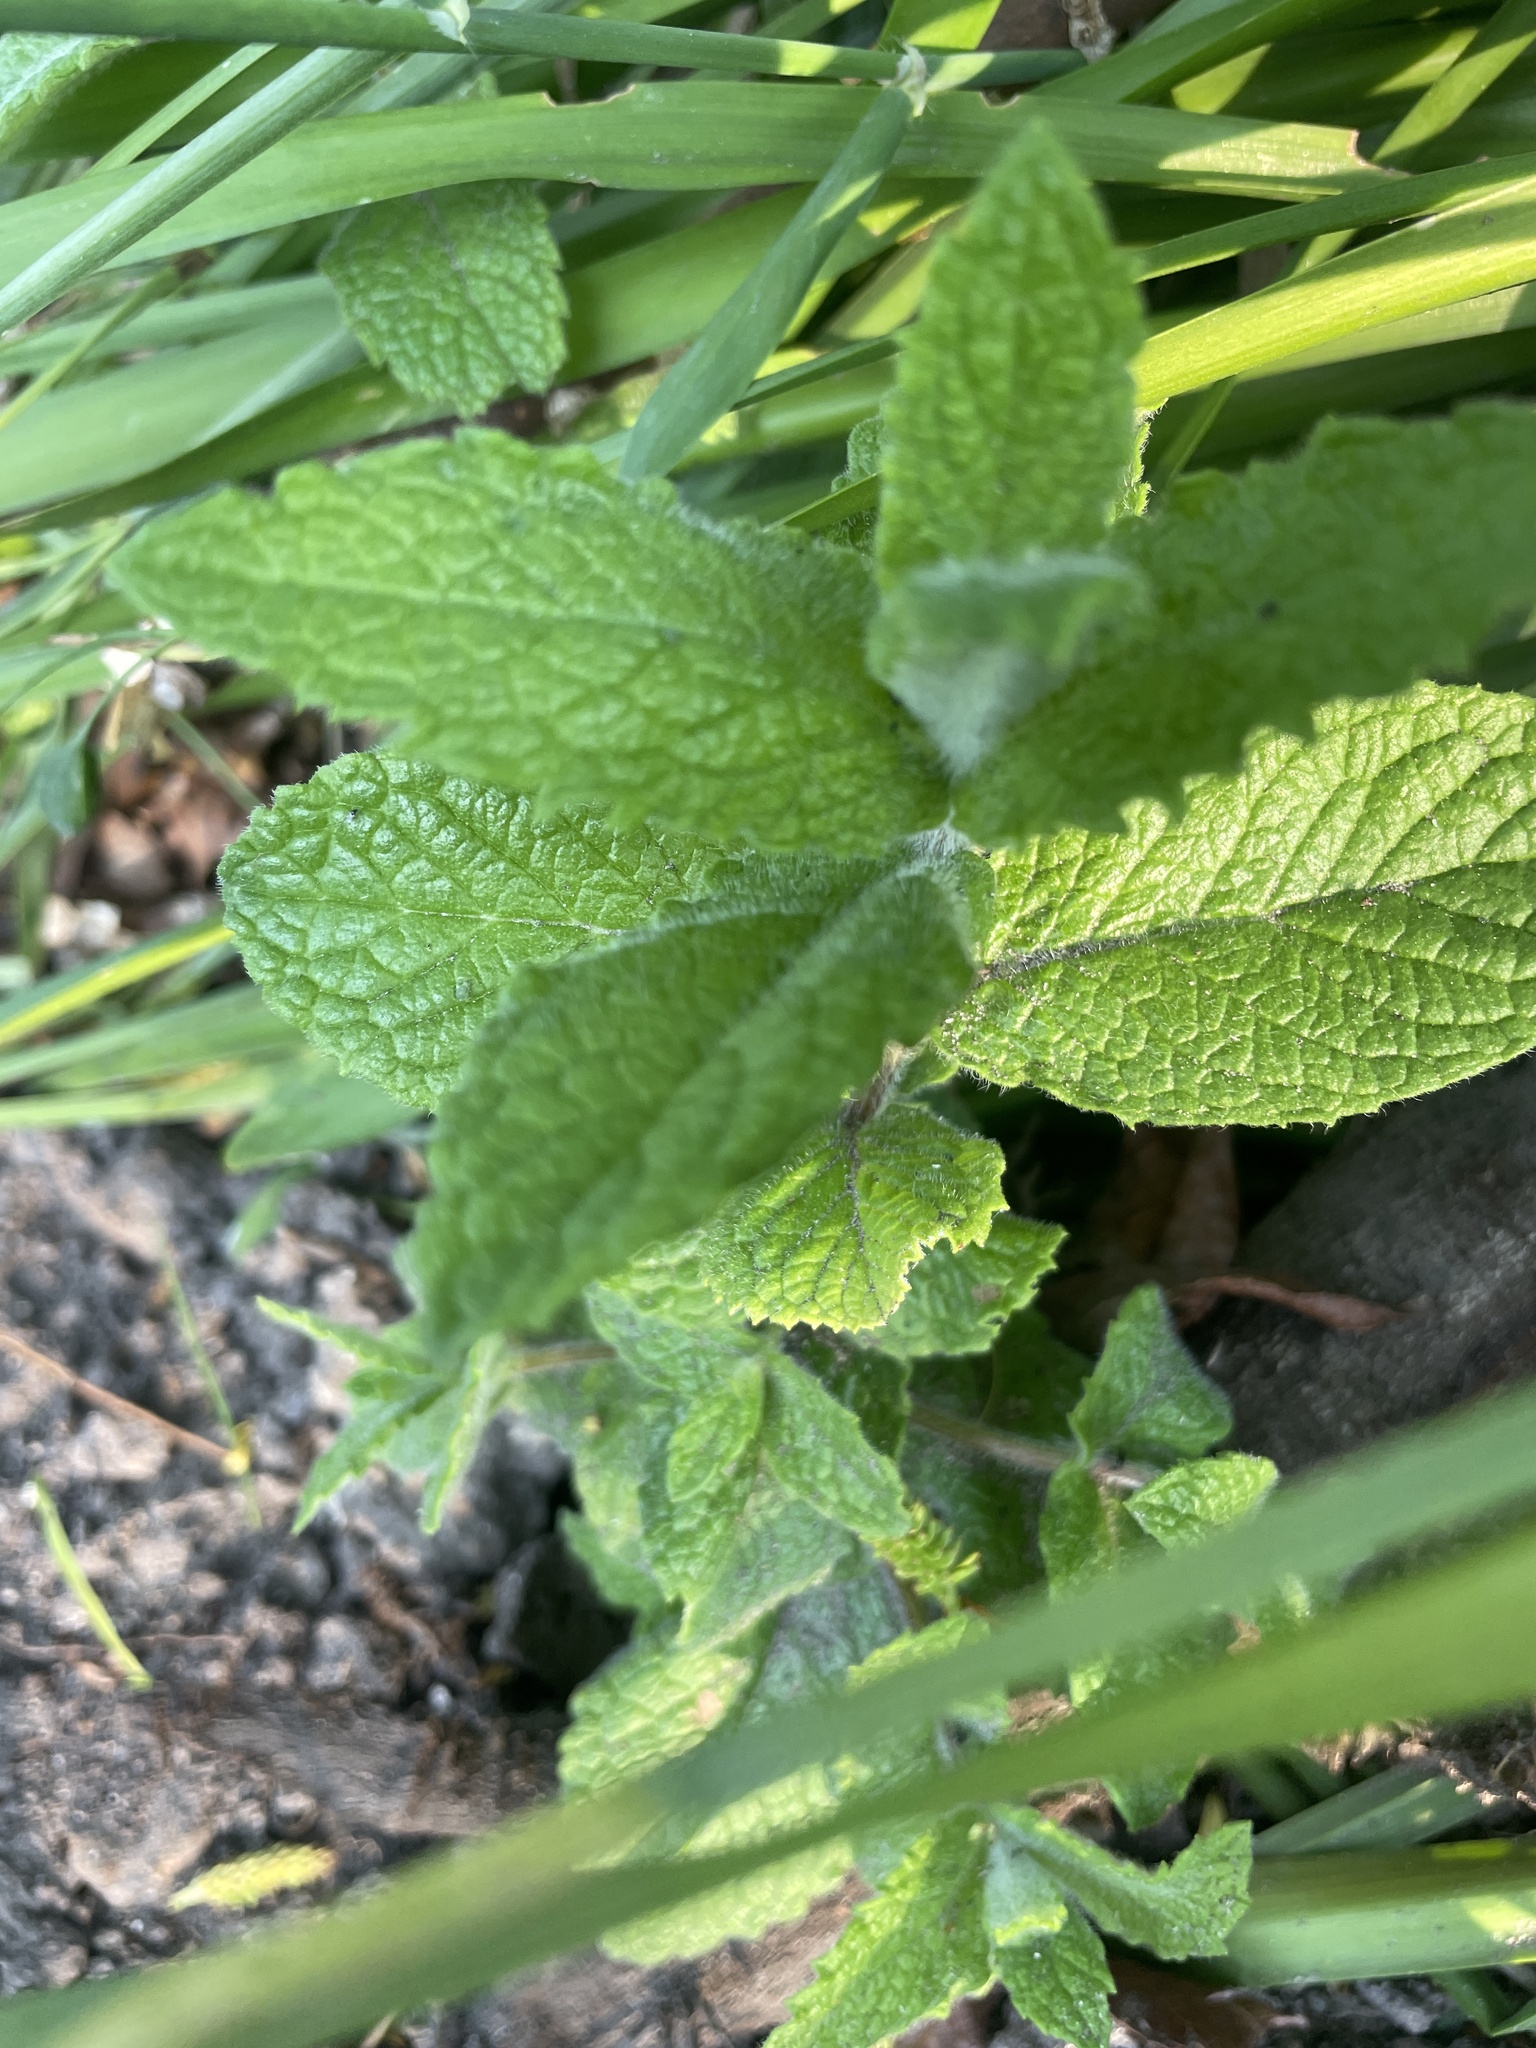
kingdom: Plantae
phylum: Tracheophyta
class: Magnoliopsida
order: Lamiales
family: Lamiaceae
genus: Mentha
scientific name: Mentha spicata
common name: Spearmint
